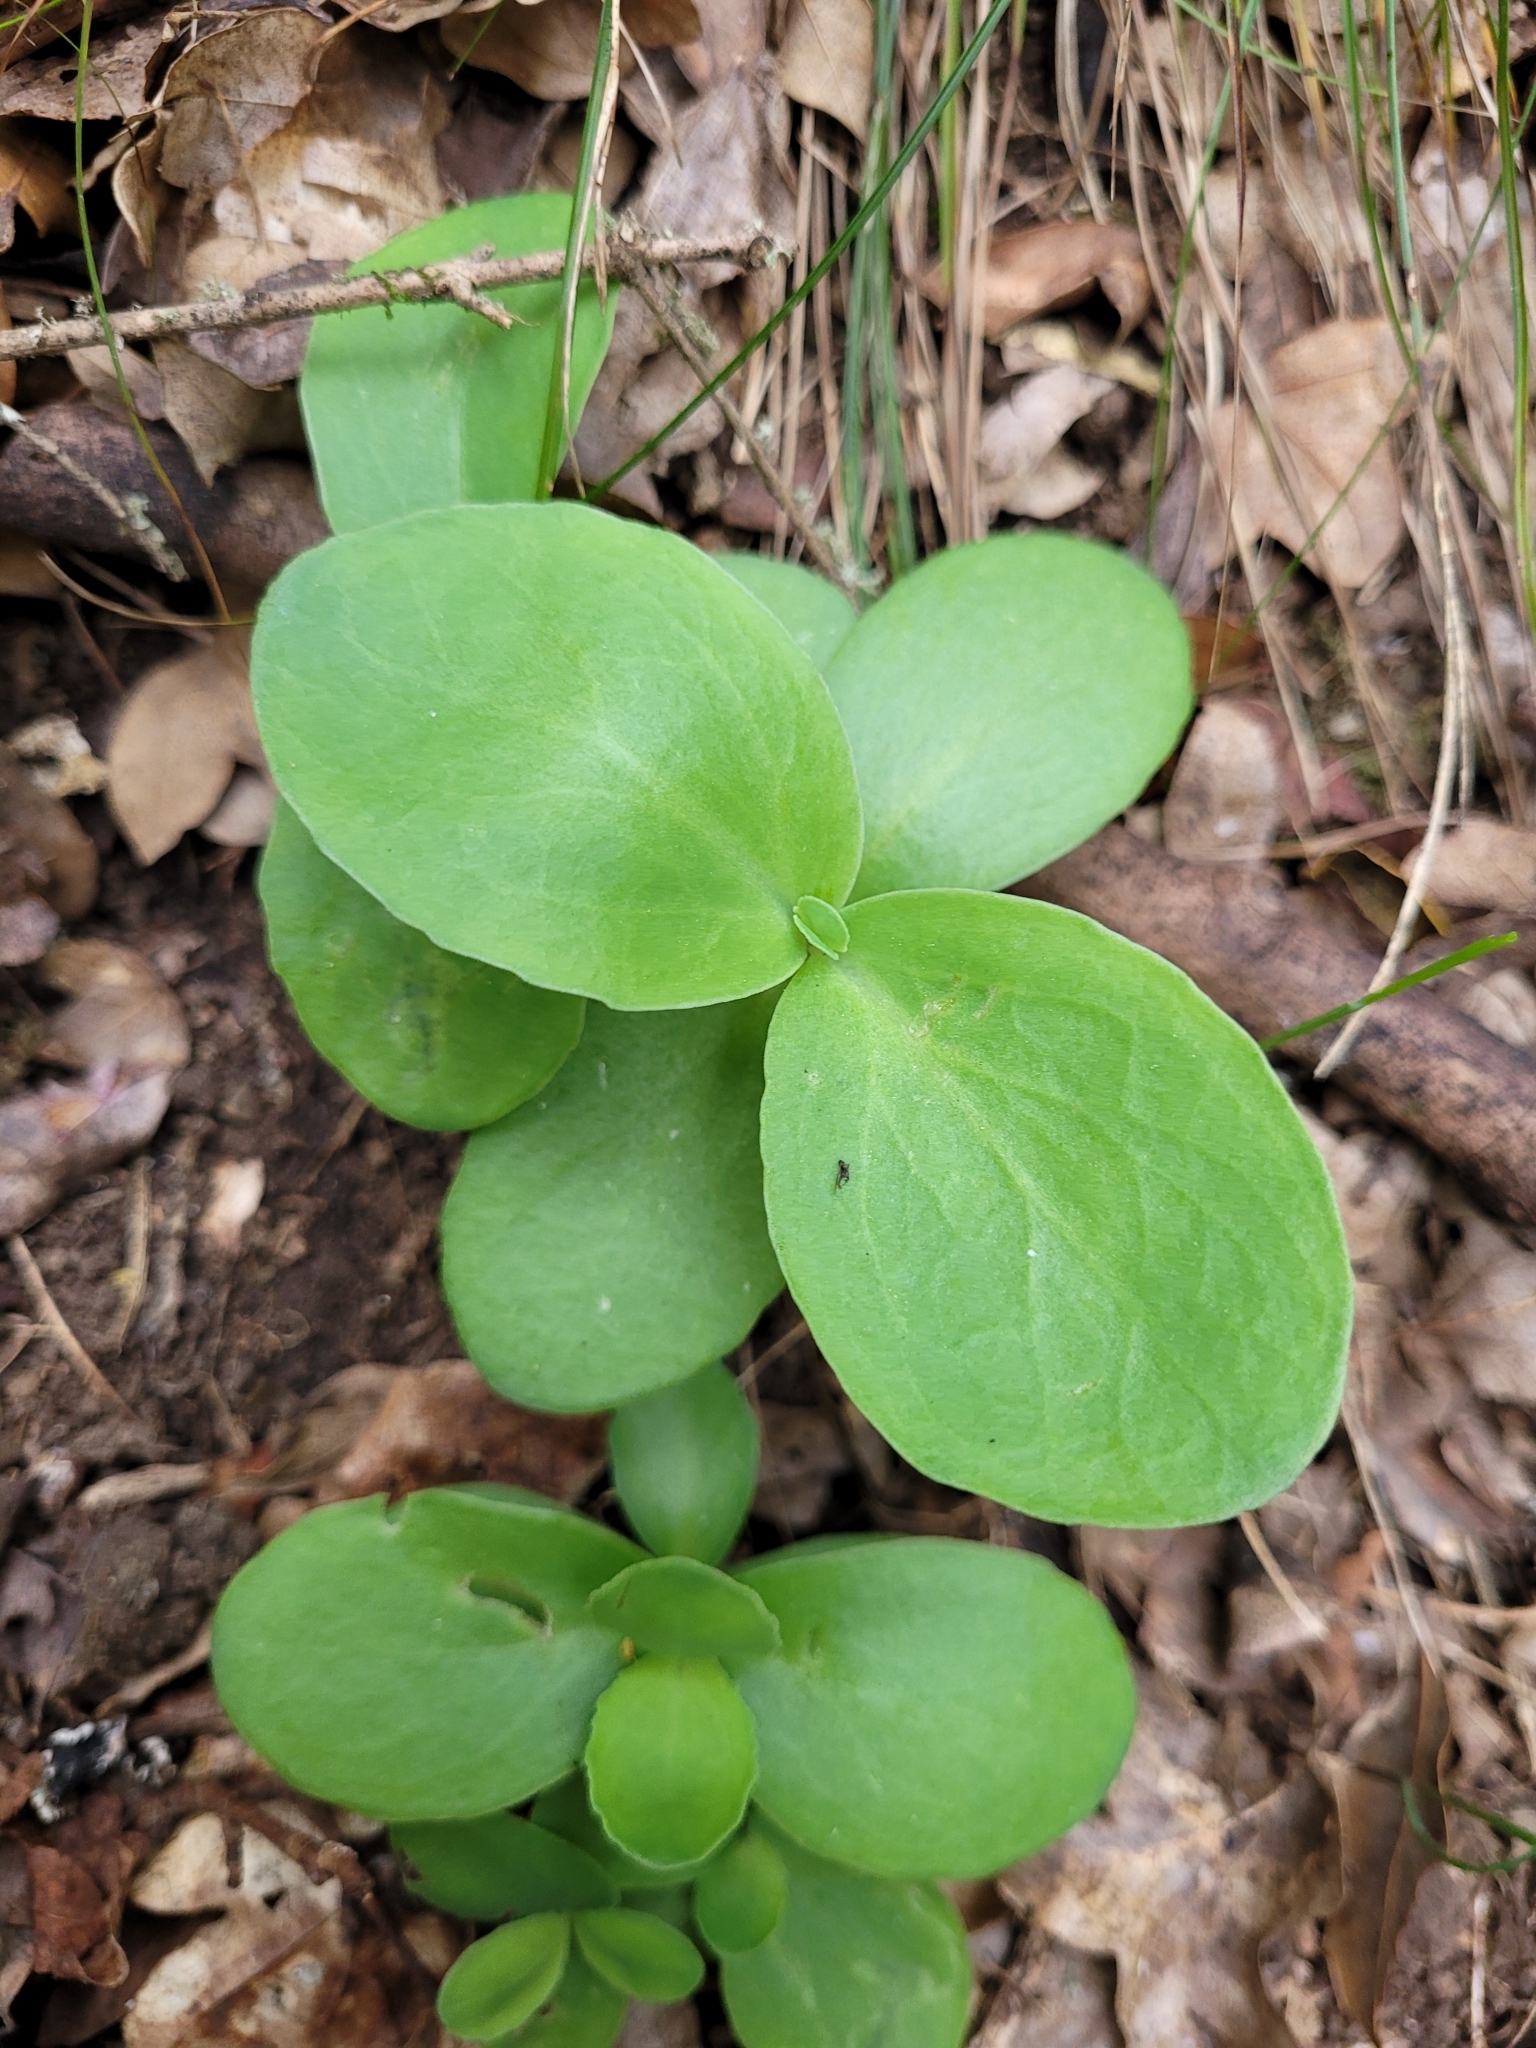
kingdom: Plantae
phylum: Tracheophyta
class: Magnoliopsida
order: Saxifragales
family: Crassulaceae
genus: Hylotelephium
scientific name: Hylotelephium maximum
